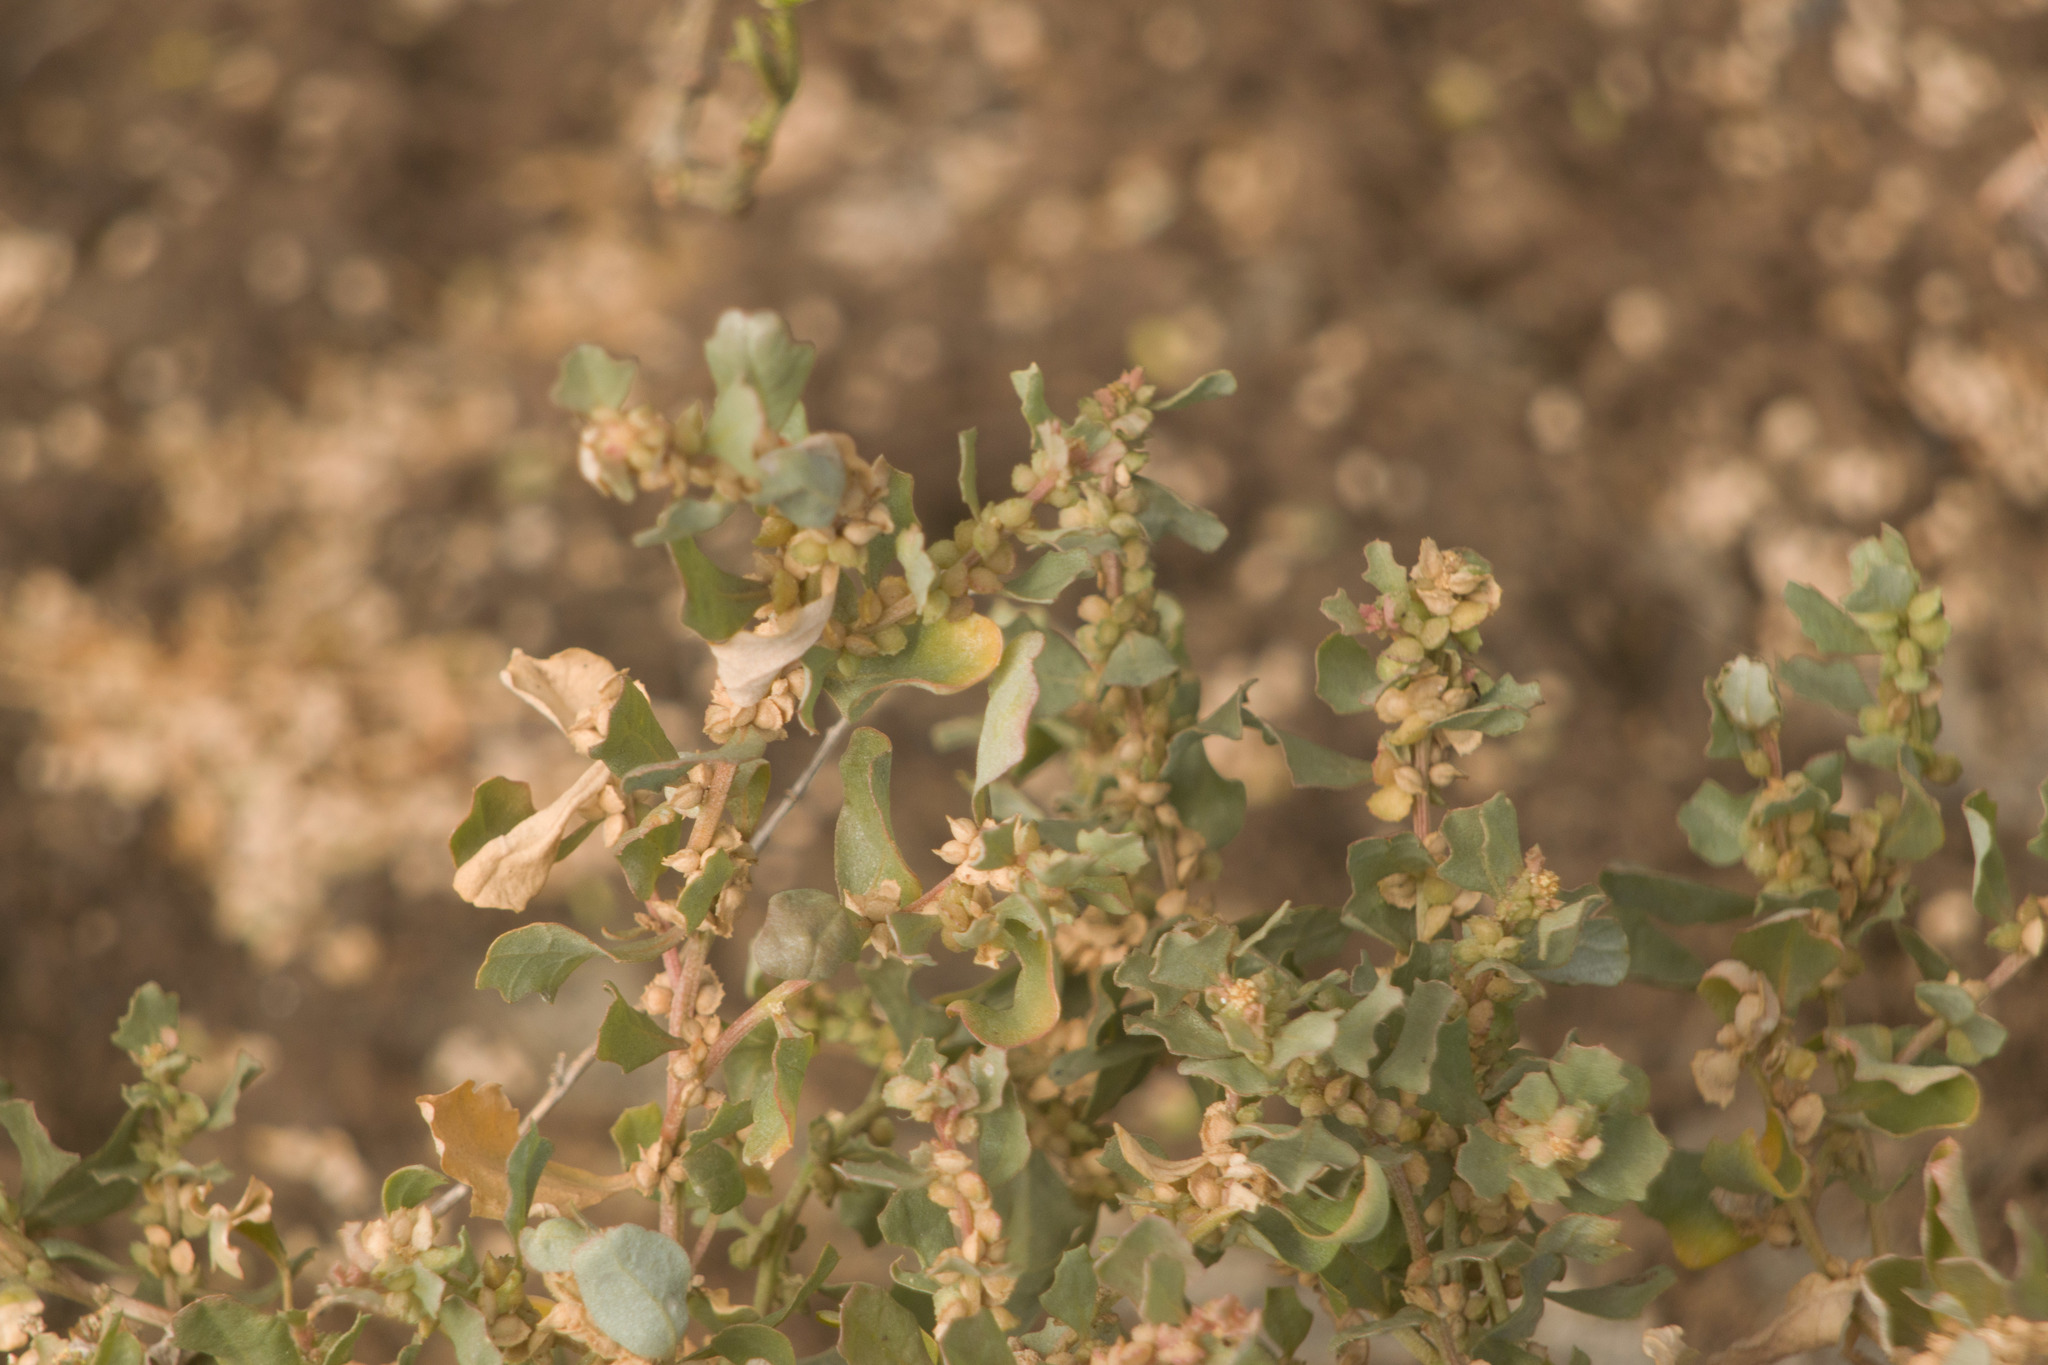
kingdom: Plantae
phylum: Tracheophyta
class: Magnoliopsida
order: Caryophyllales
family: Amaranthaceae
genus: Atriplex
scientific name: Atriplex muelleri
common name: Mueller's saltbush
